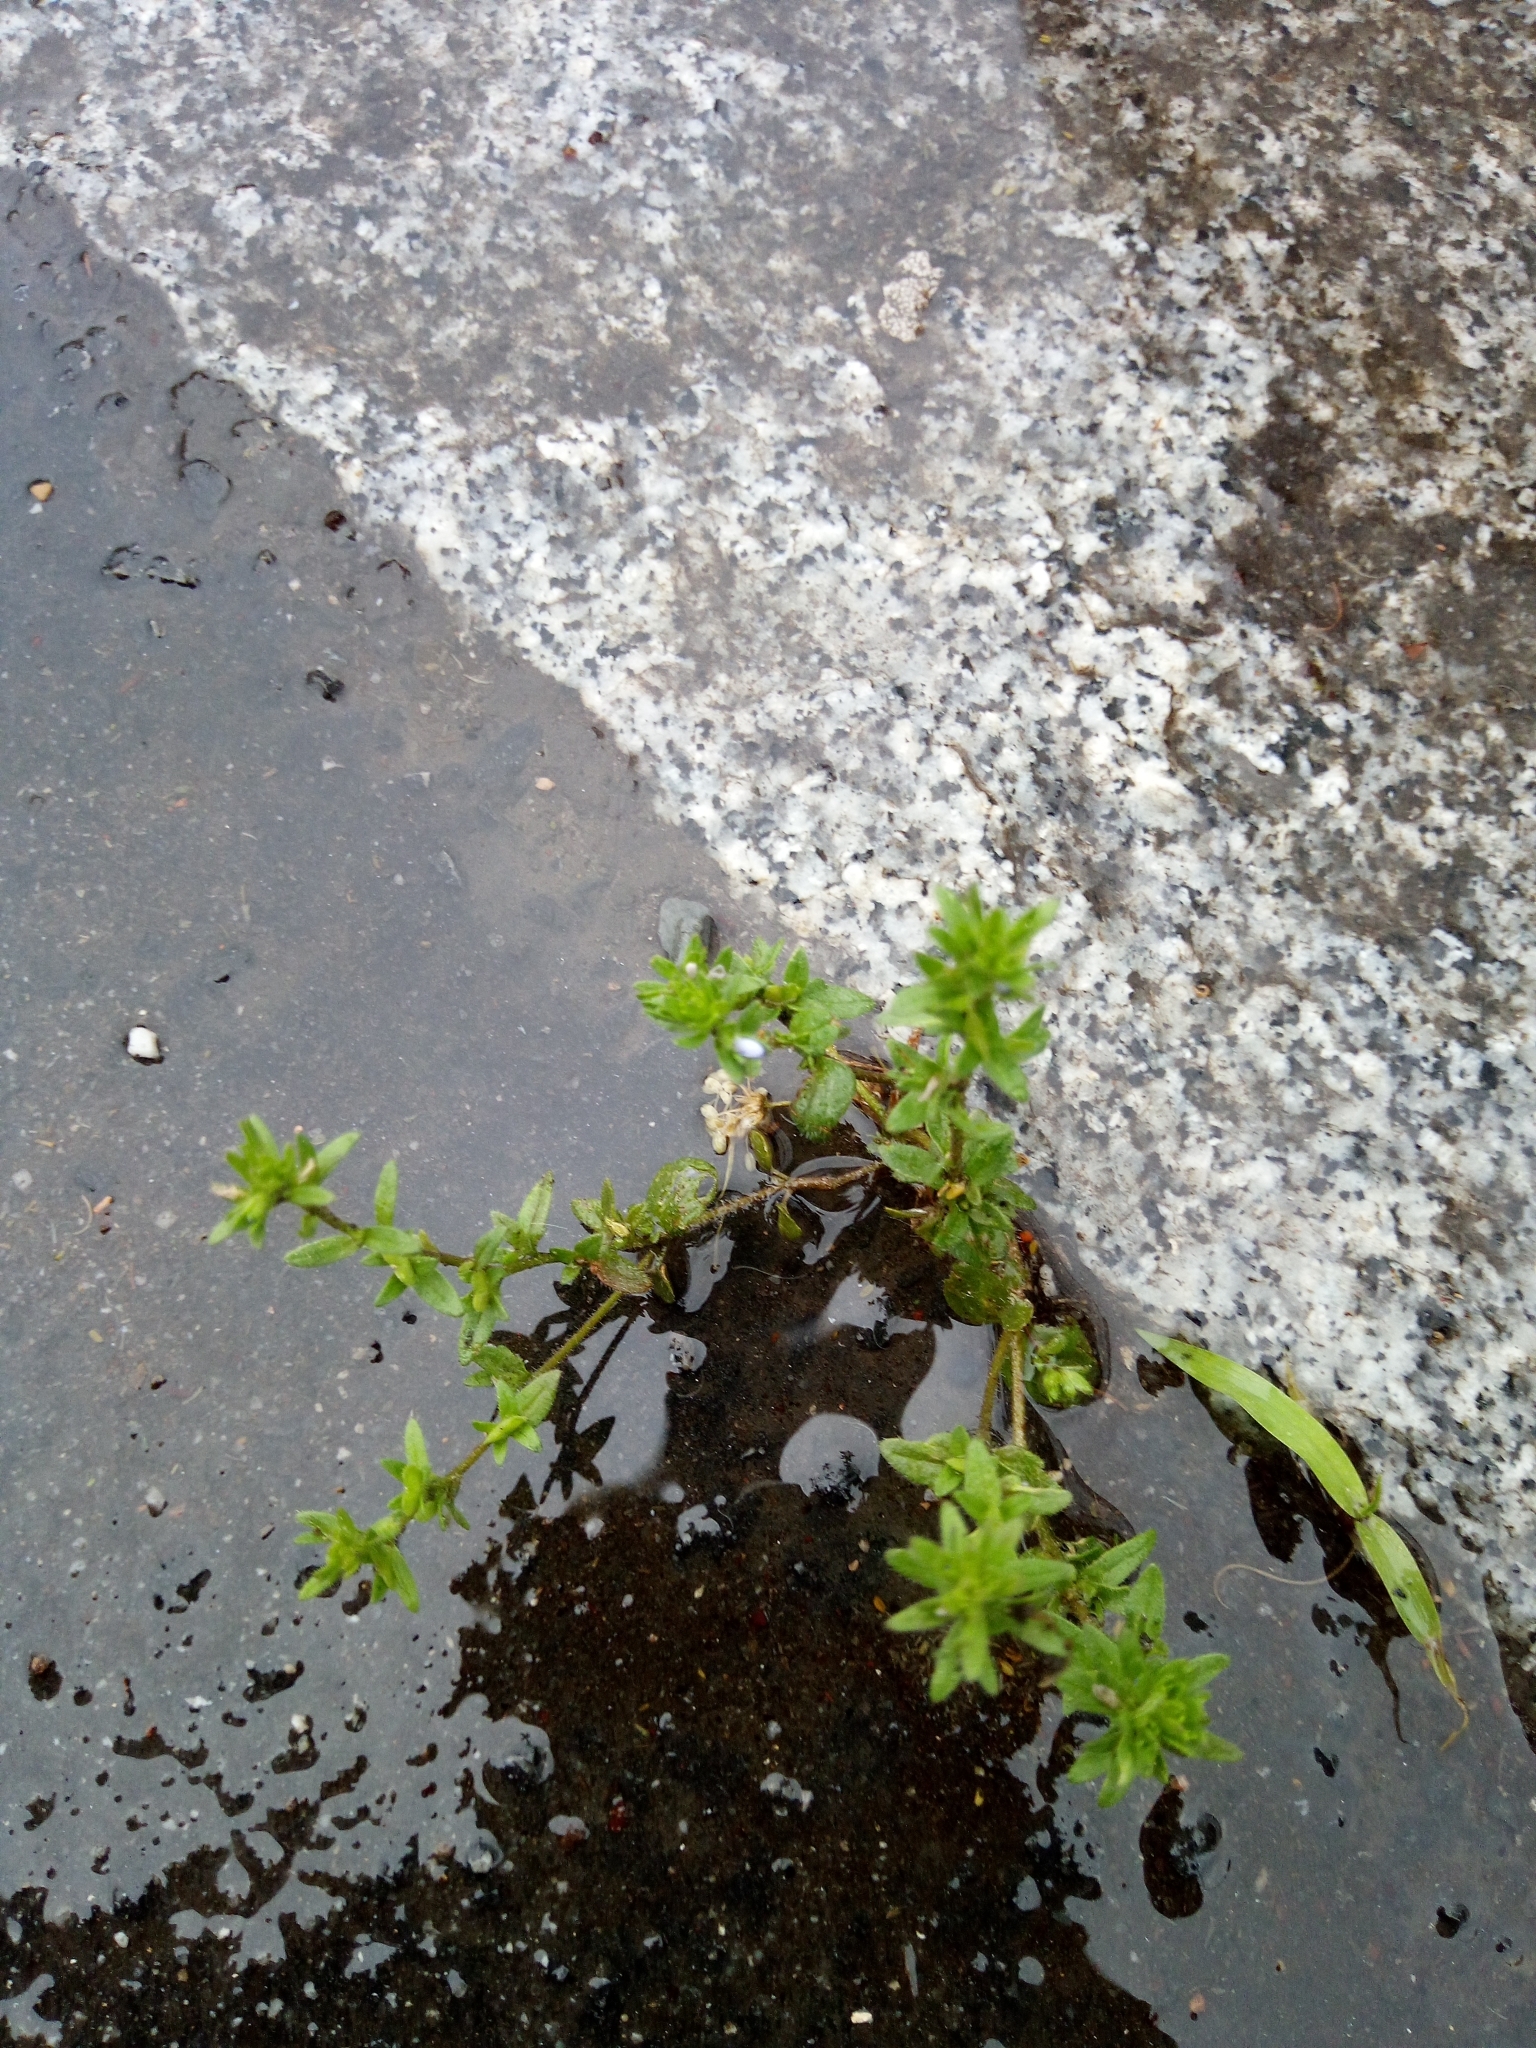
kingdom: Plantae
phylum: Tracheophyta
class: Magnoliopsida
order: Lamiales
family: Plantaginaceae
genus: Veronica
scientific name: Veronica arvensis
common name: Corn speedwell
